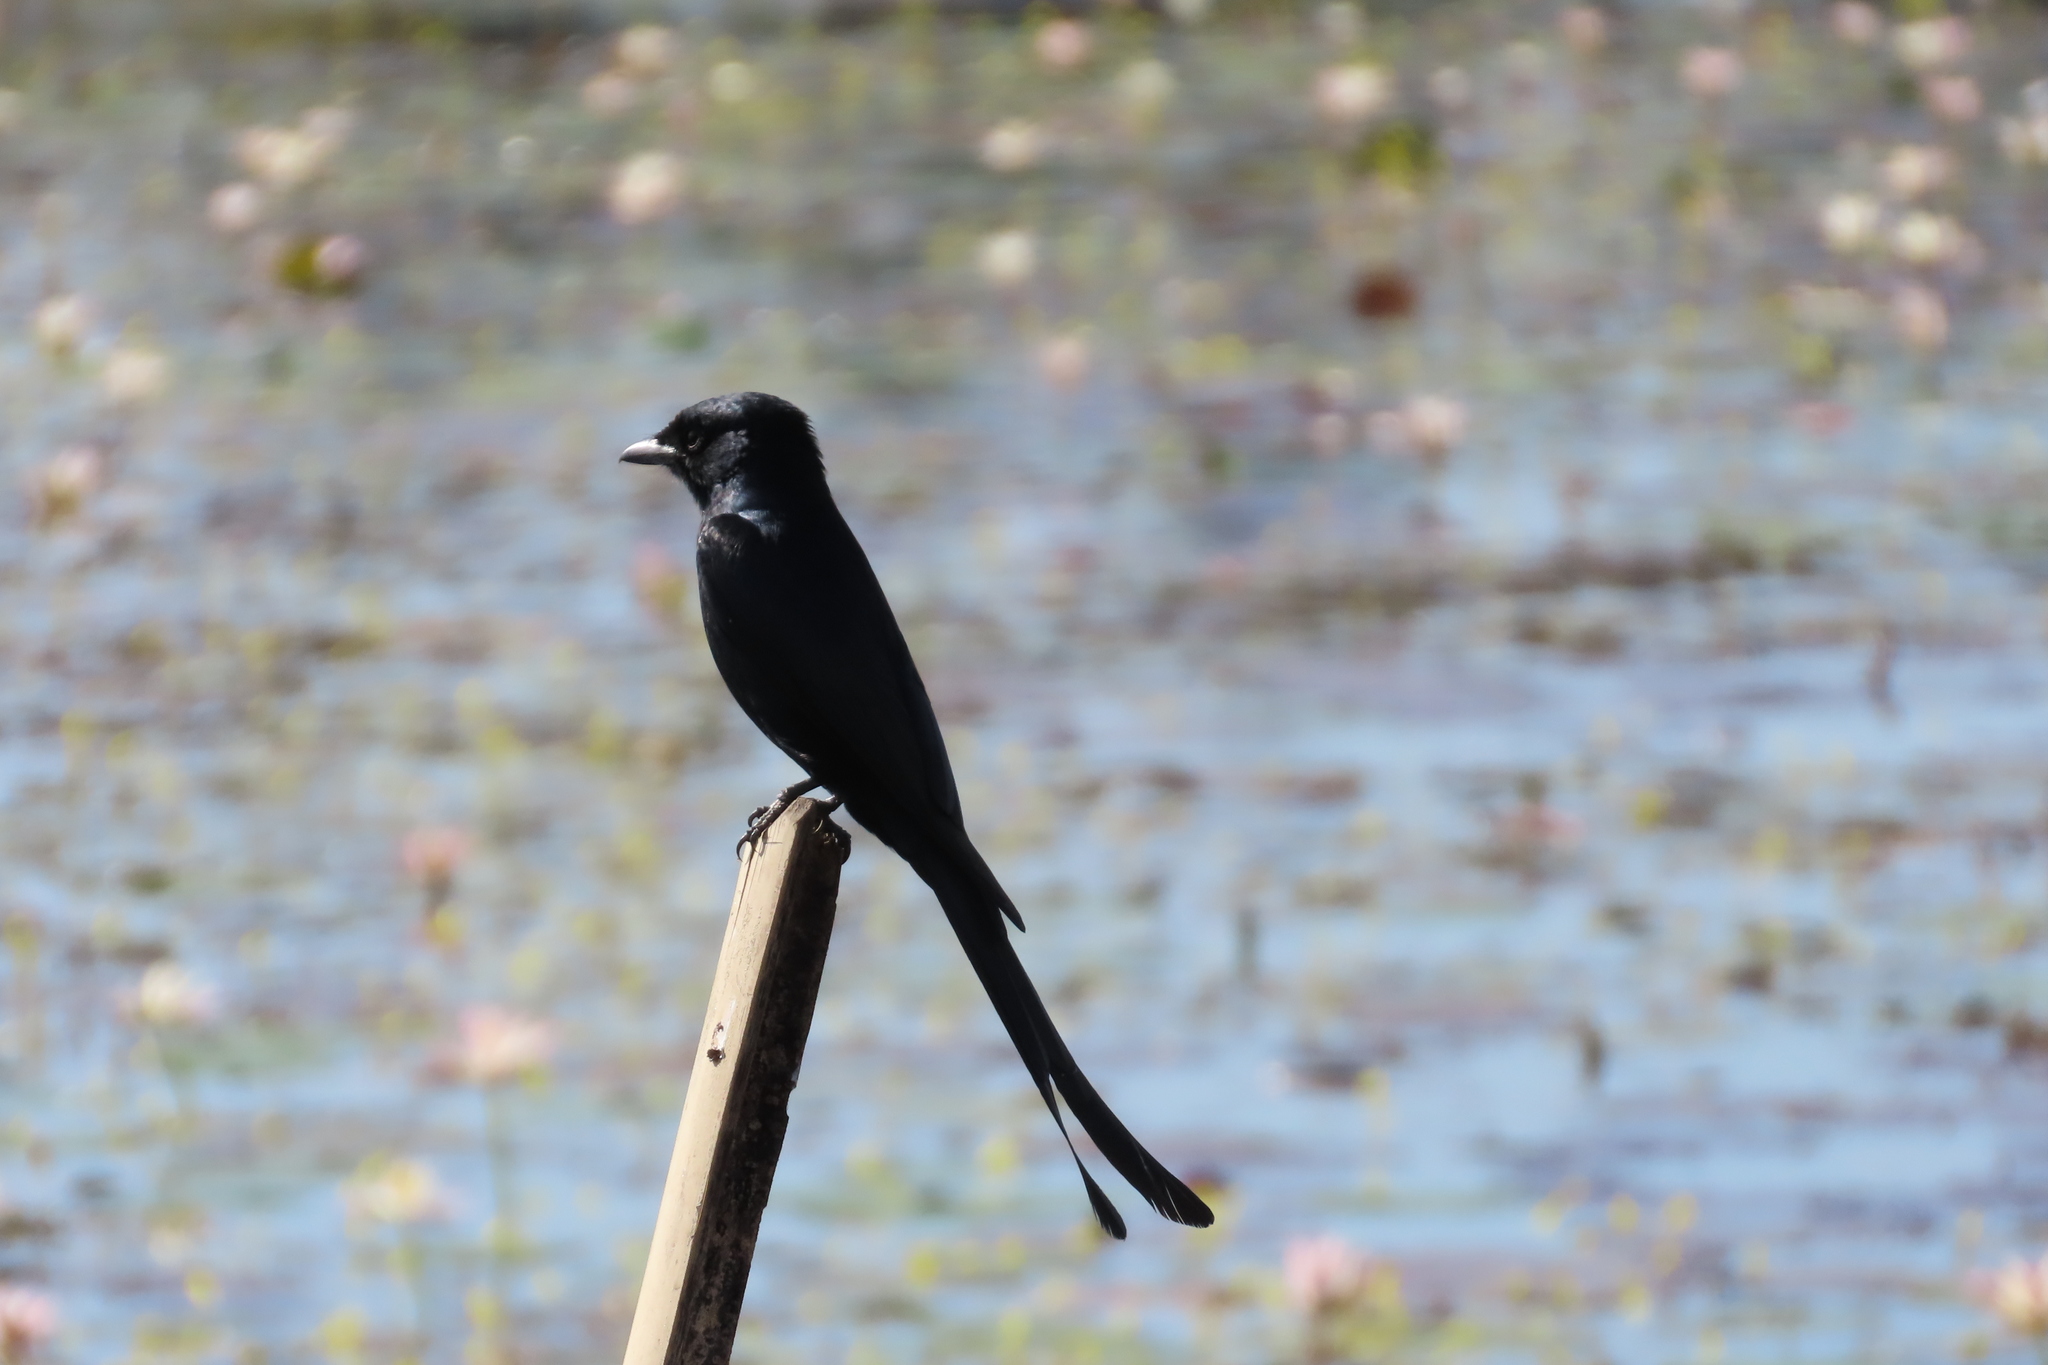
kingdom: Animalia
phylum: Chordata
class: Aves
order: Passeriformes
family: Dicruridae
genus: Dicrurus
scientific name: Dicrurus macrocercus
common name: Black drongo
